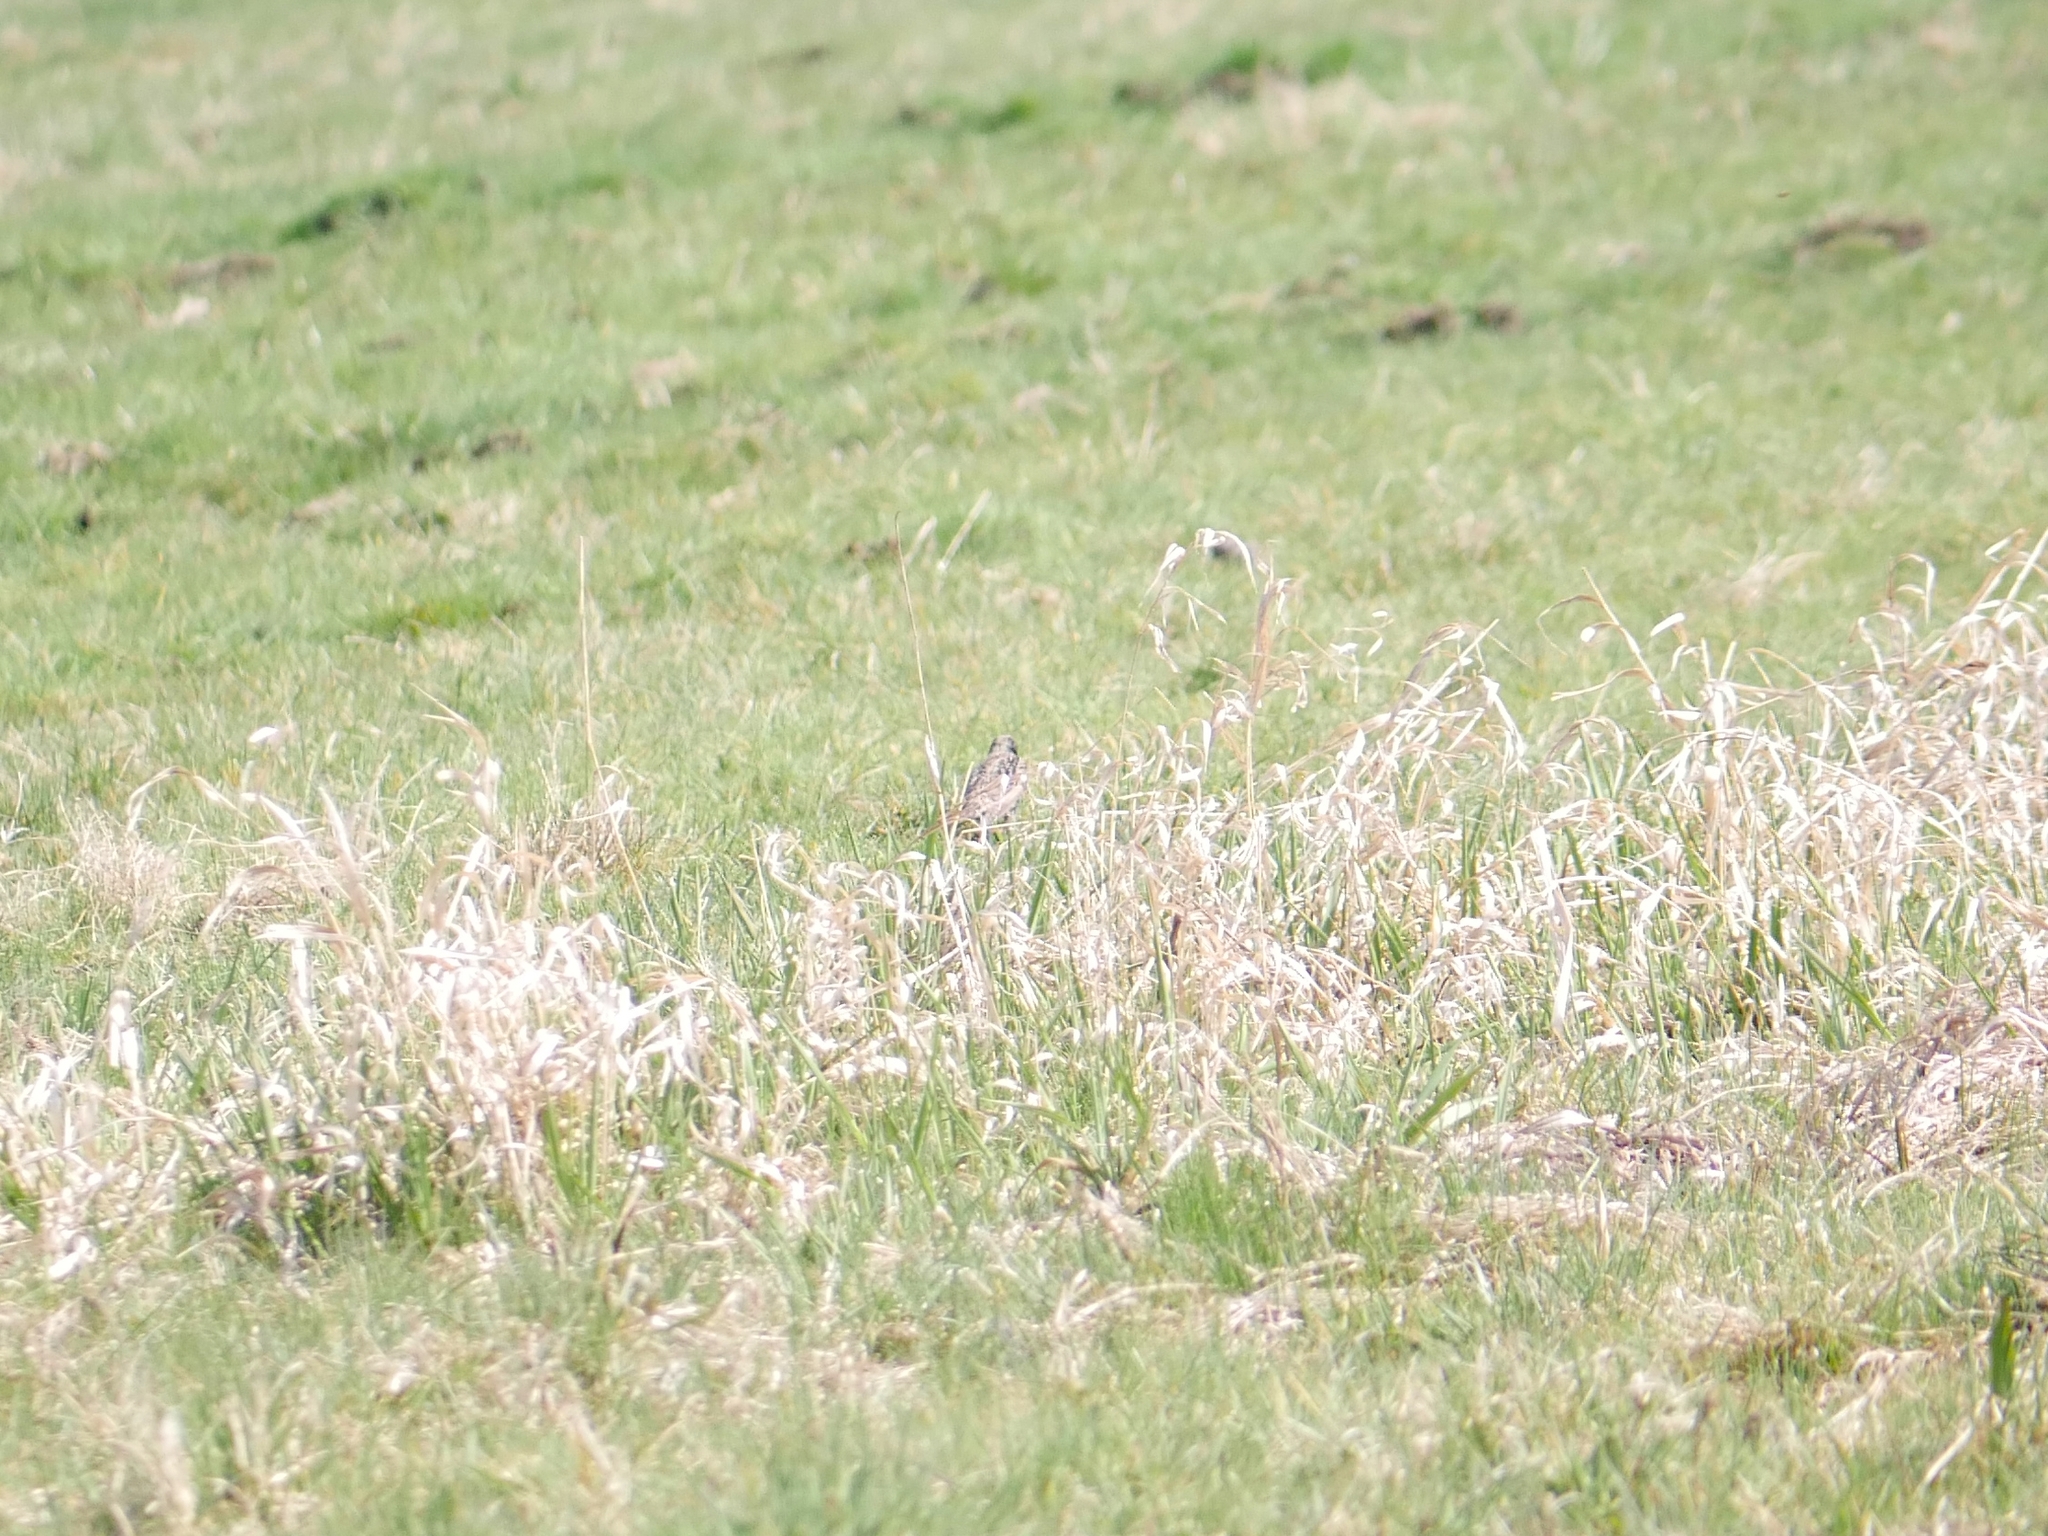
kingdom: Animalia
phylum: Chordata
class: Aves
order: Passeriformes
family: Sturnidae
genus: Sturnus
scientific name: Sturnus vulgaris
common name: Common starling
